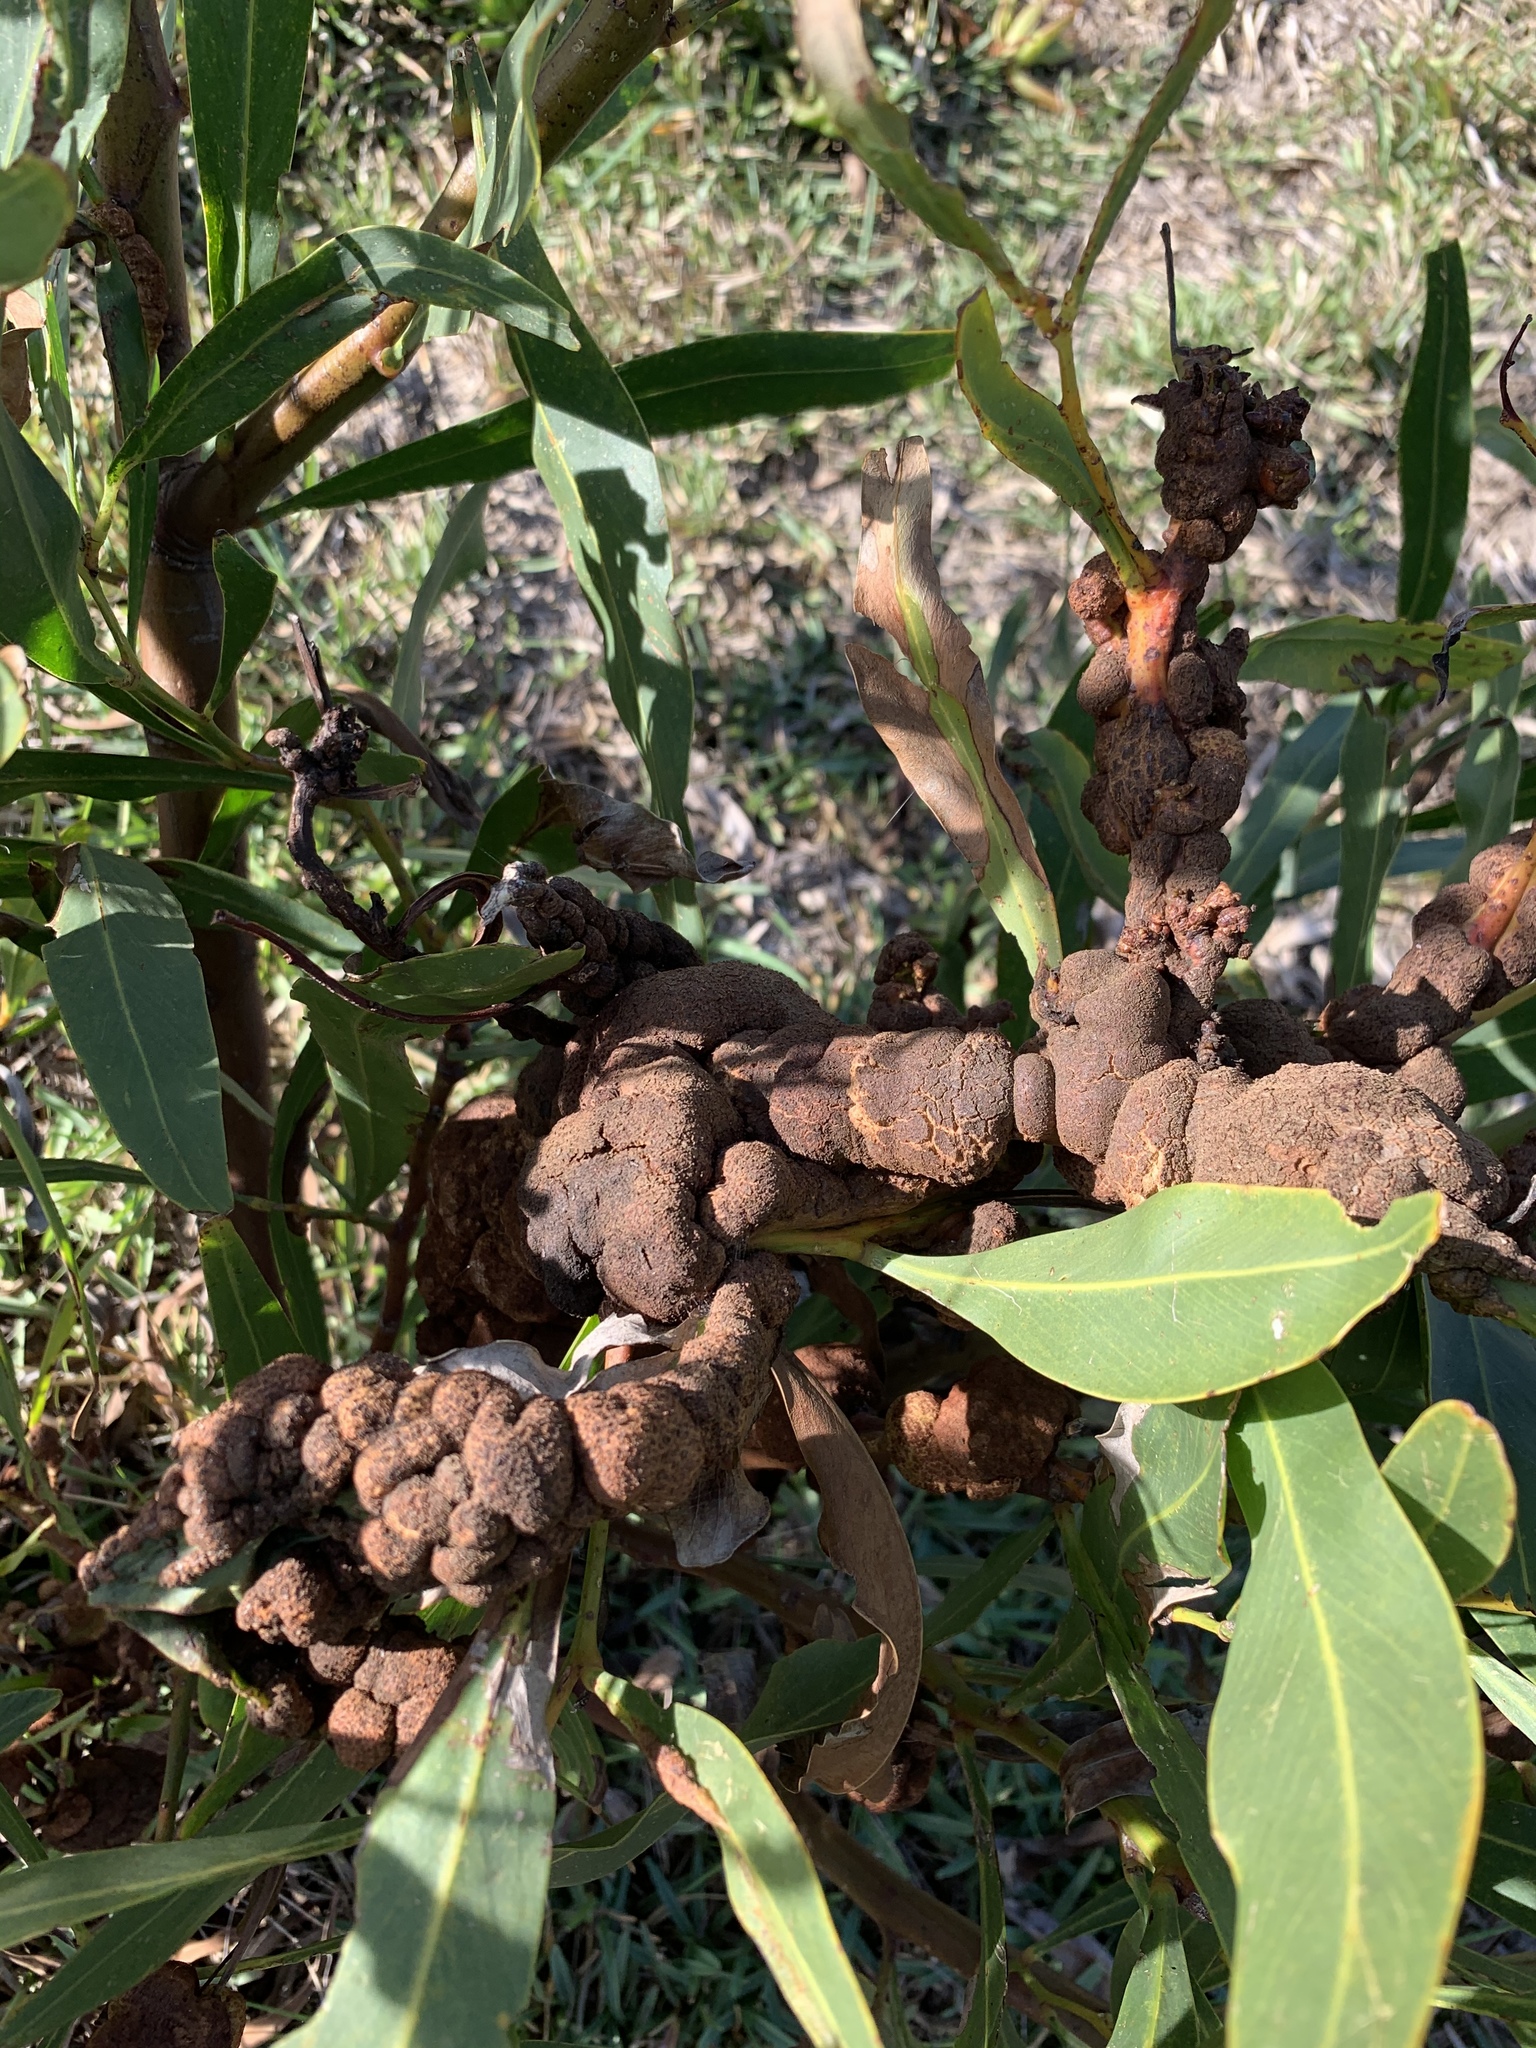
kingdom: Plantae
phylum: Tracheophyta
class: Magnoliopsida
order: Fabales
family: Fabaceae
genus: Acacia
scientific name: Acacia saligna
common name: Orange wattle
